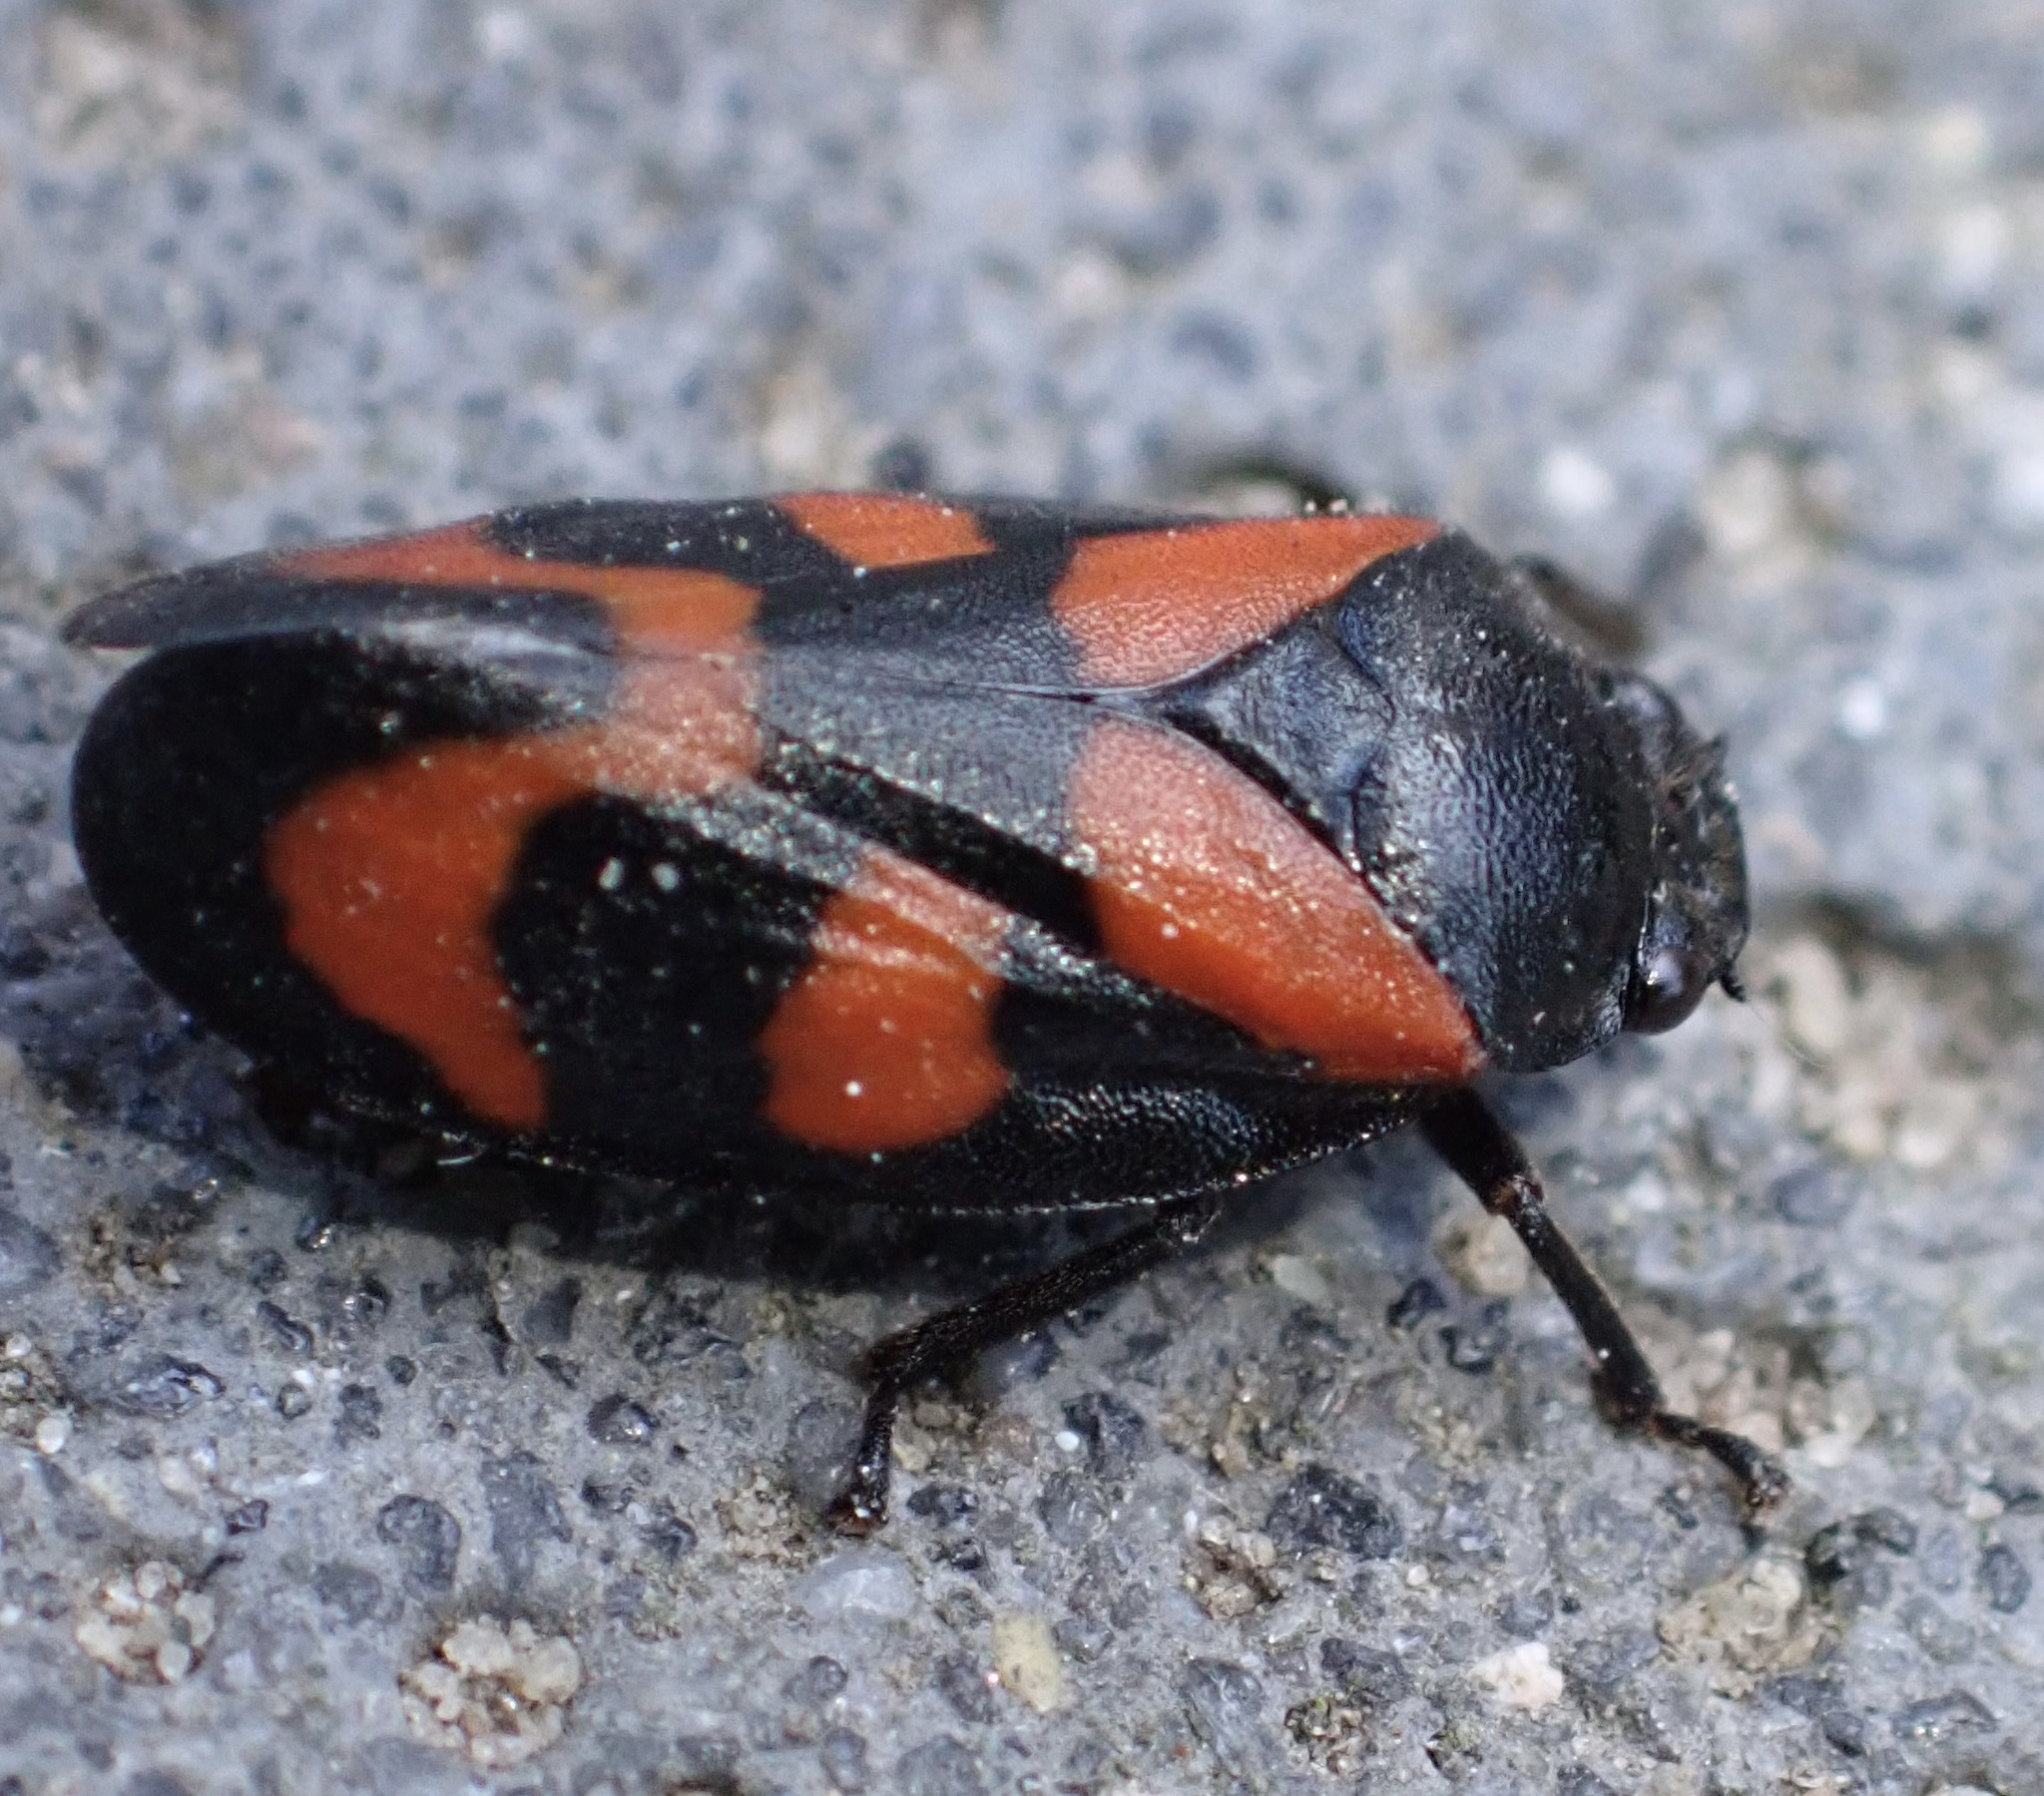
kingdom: Animalia
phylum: Arthropoda
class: Insecta
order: Hemiptera
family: Cercopidae
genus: Cercopis
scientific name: Cercopis vulnerata
